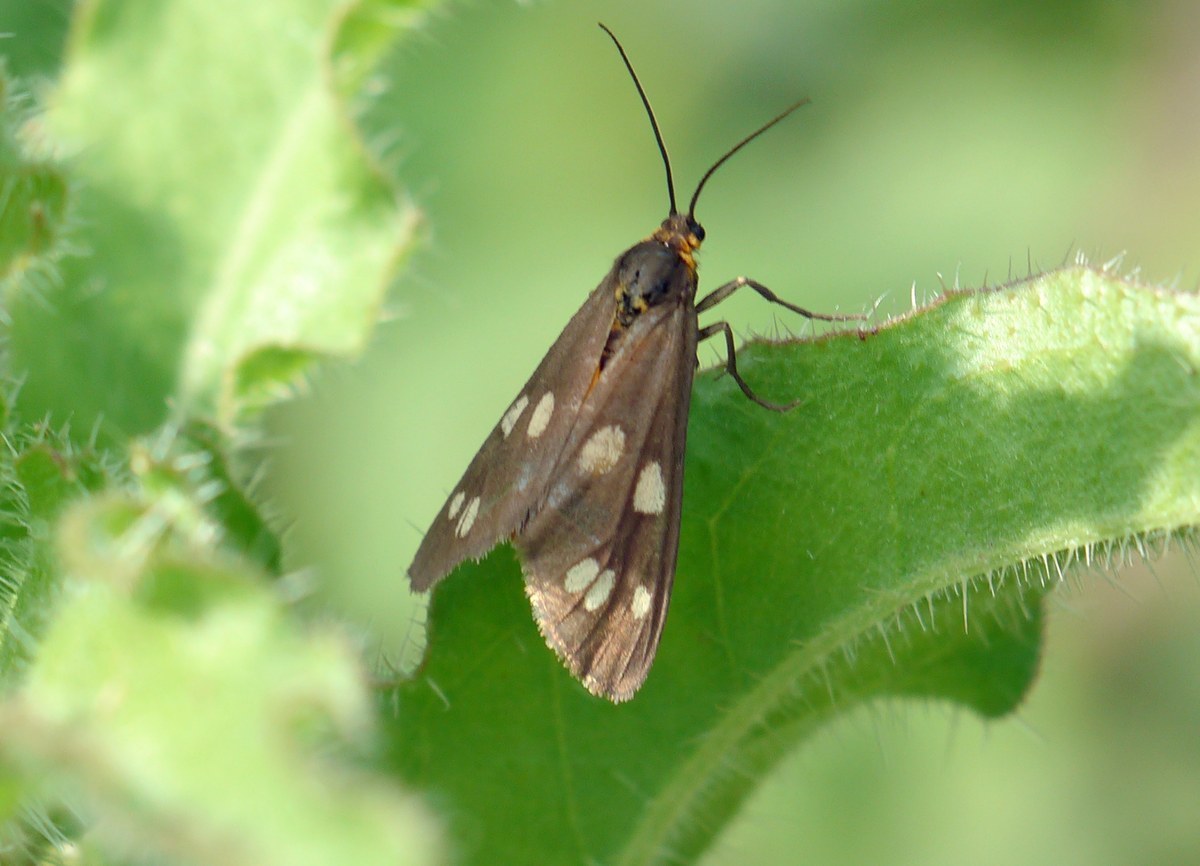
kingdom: Animalia
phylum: Arthropoda
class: Insecta
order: Lepidoptera
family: Erebidae
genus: Dysauxes
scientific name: Dysauxes punctata
